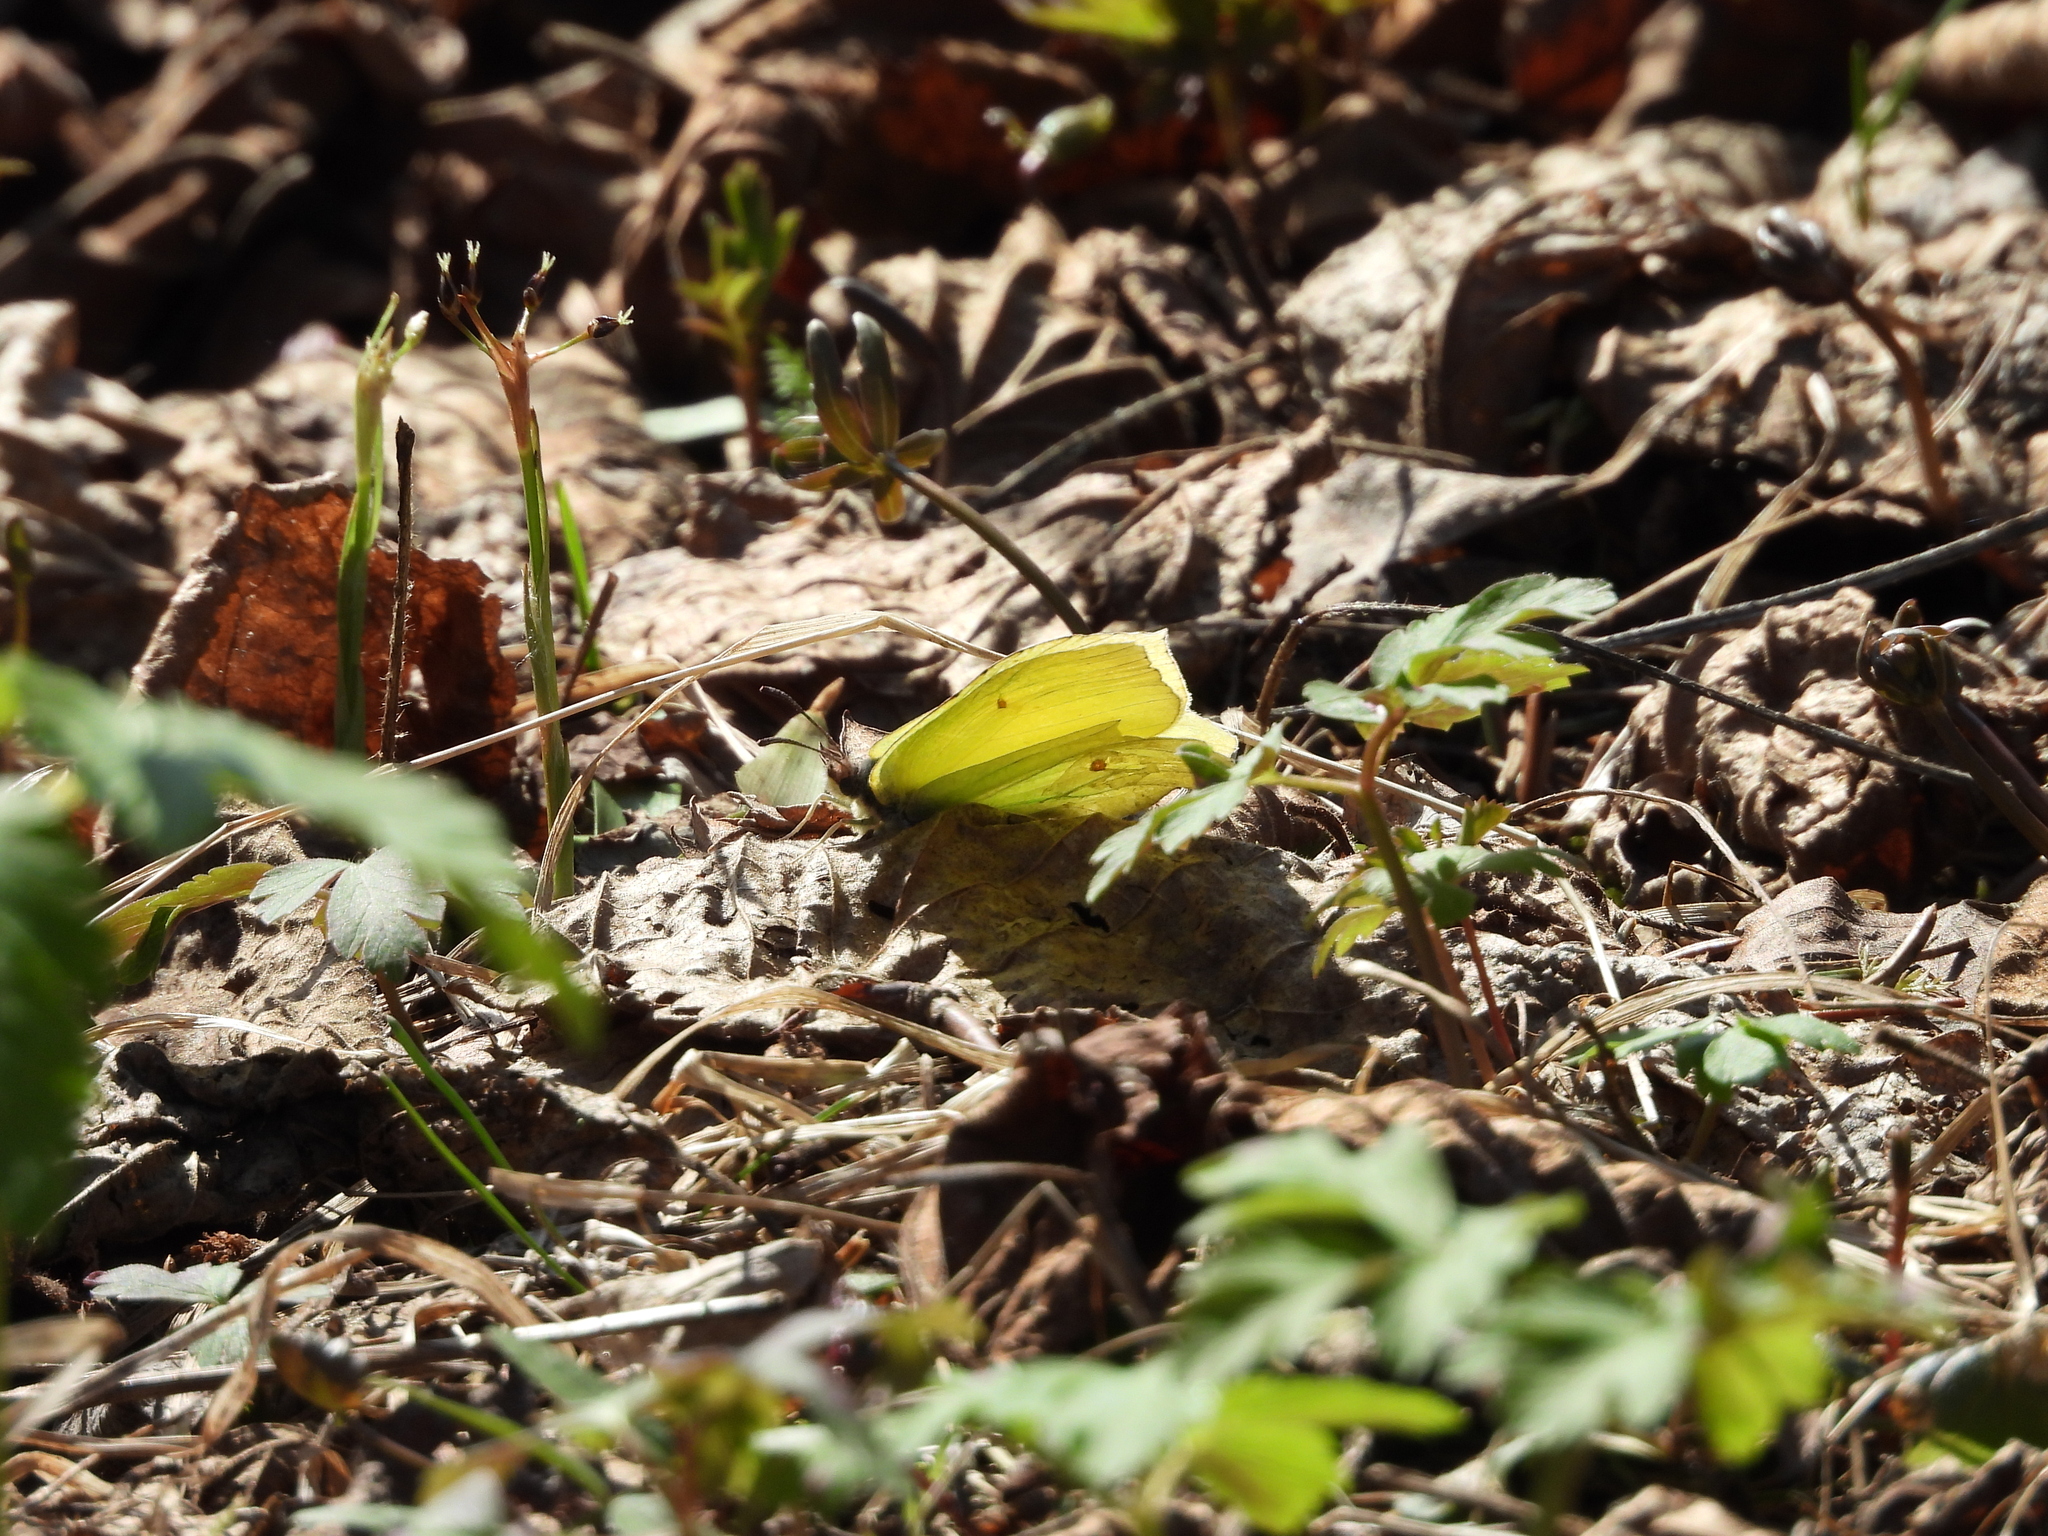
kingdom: Animalia
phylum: Arthropoda
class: Insecta
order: Lepidoptera
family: Pieridae
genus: Gonepteryx
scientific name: Gonepteryx rhamni
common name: Brimstone
